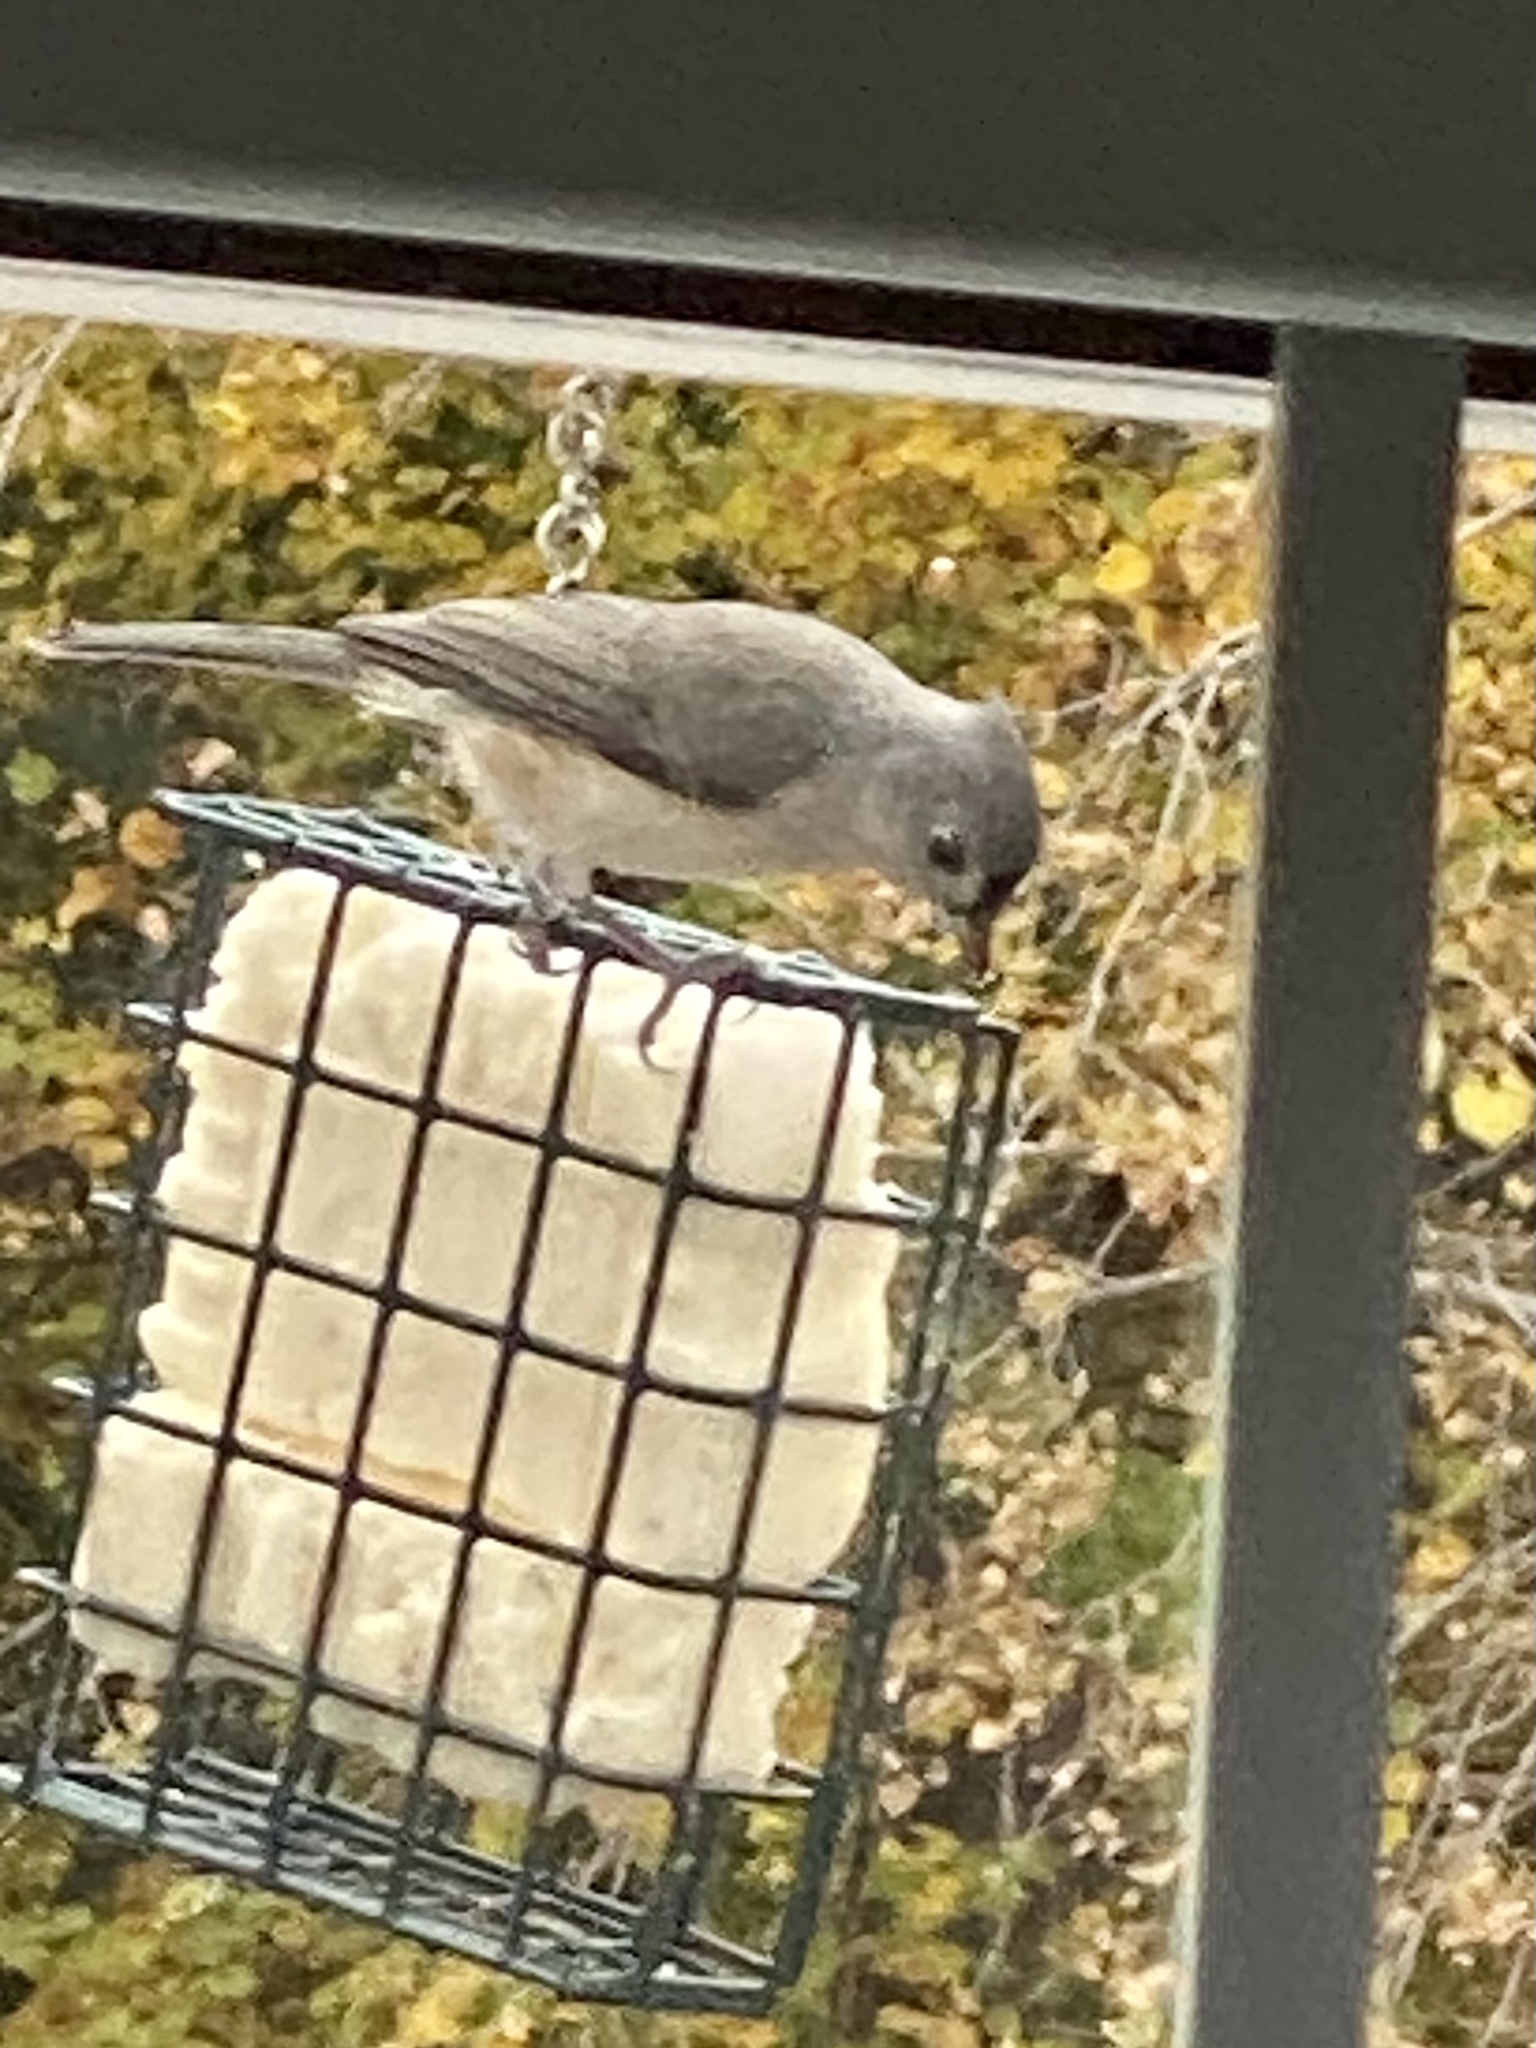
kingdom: Animalia
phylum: Chordata
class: Aves
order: Passeriformes
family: Paridae
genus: Baeolophus
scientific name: Baeolophus bicolor
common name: Tufted titmouse
